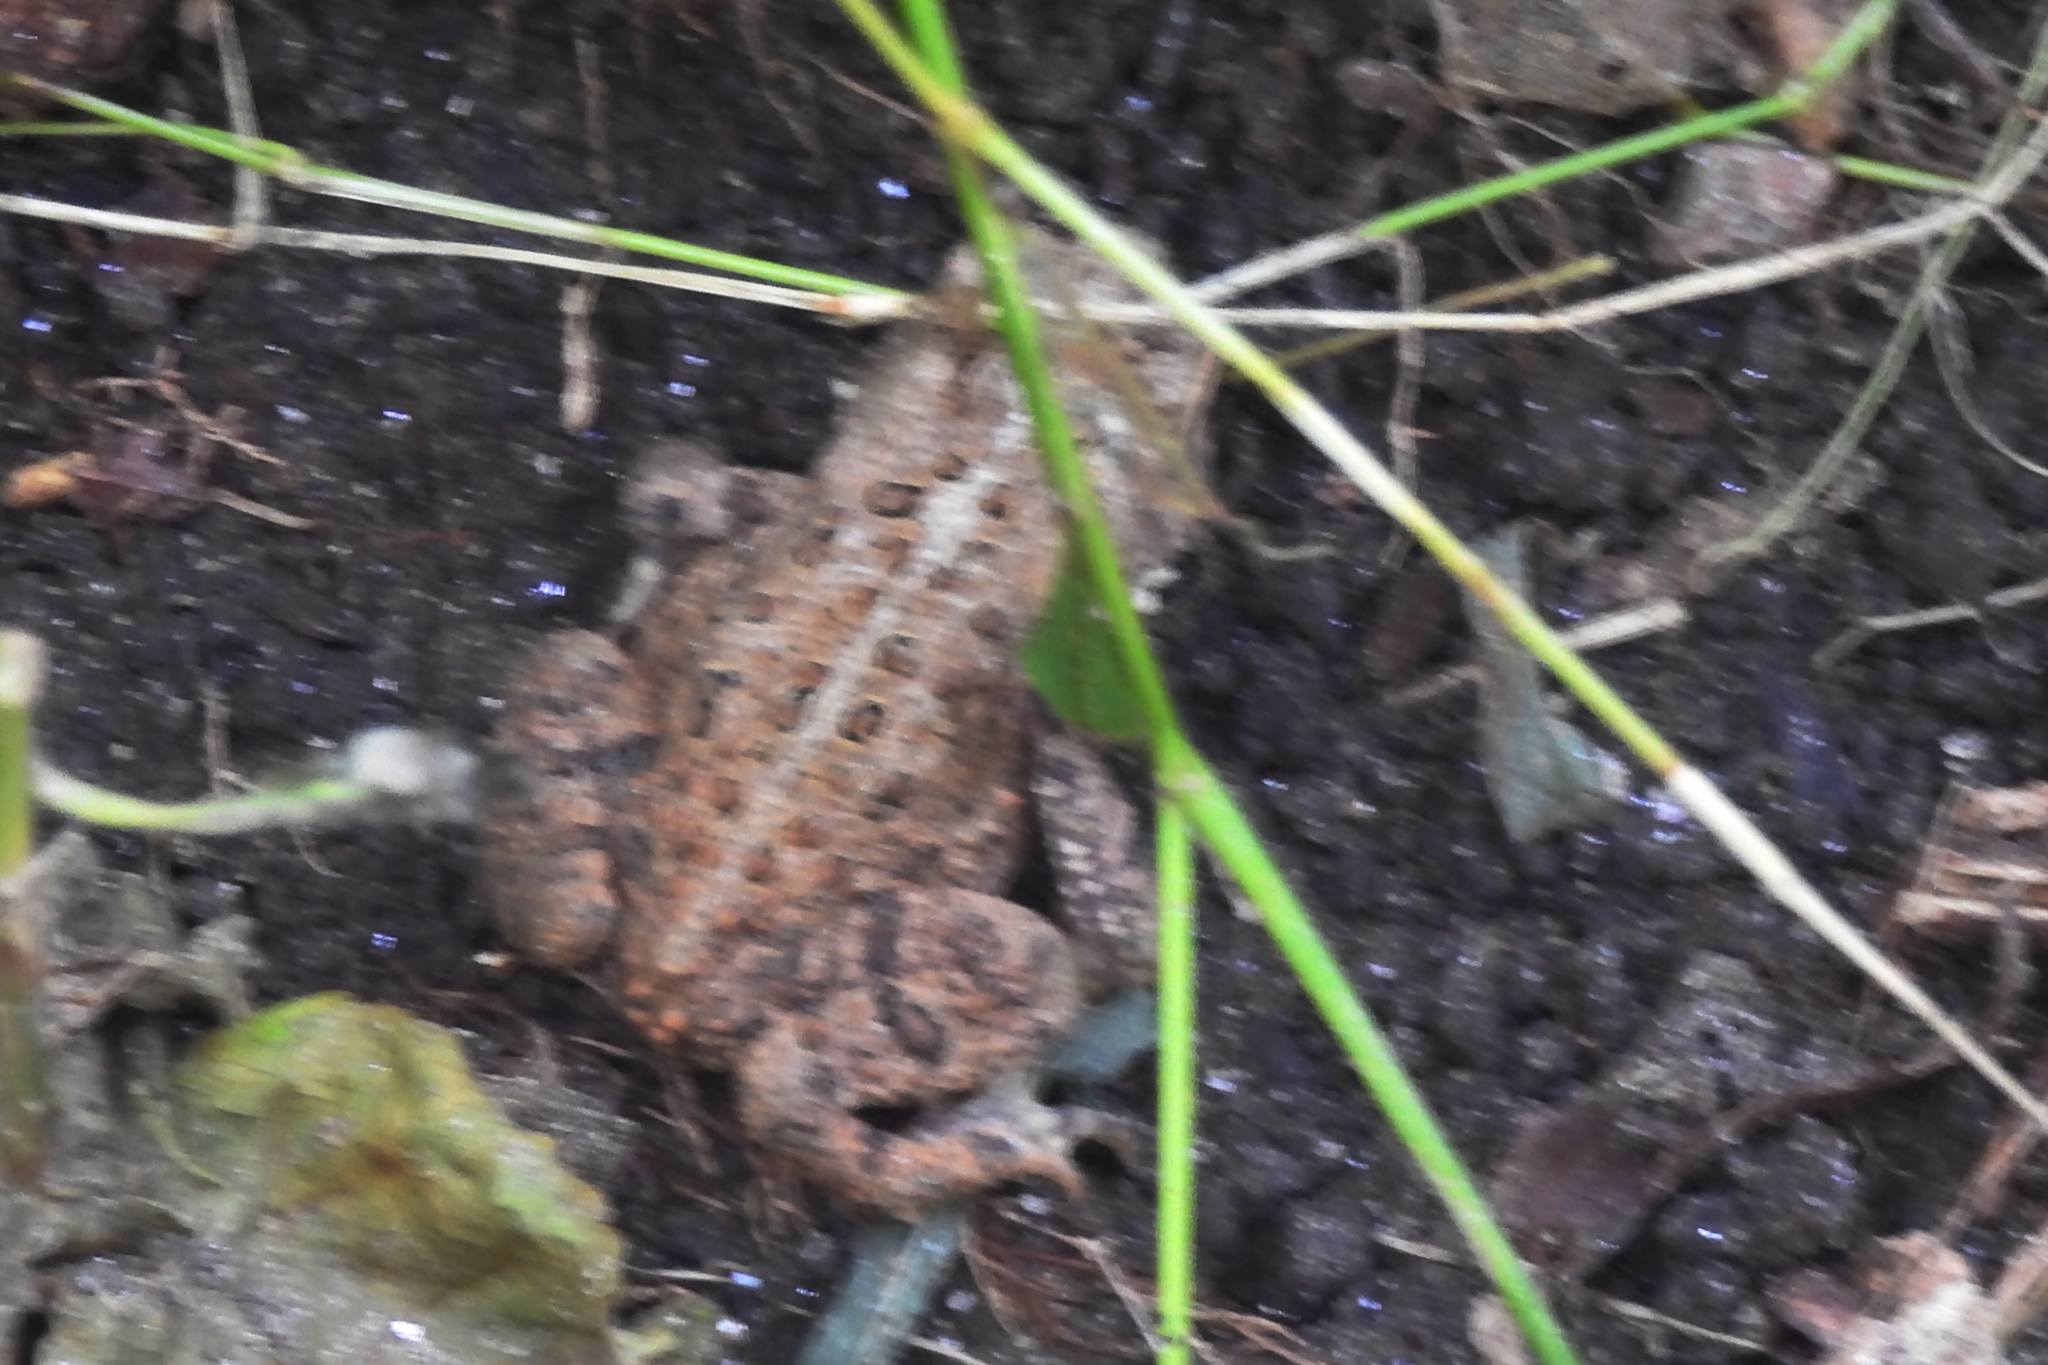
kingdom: Animalia
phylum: Chordata
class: Amphibia
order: Anura
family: Bufonidae
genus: Anaxyrus
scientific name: Anaxyrus americanus
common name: American toad
